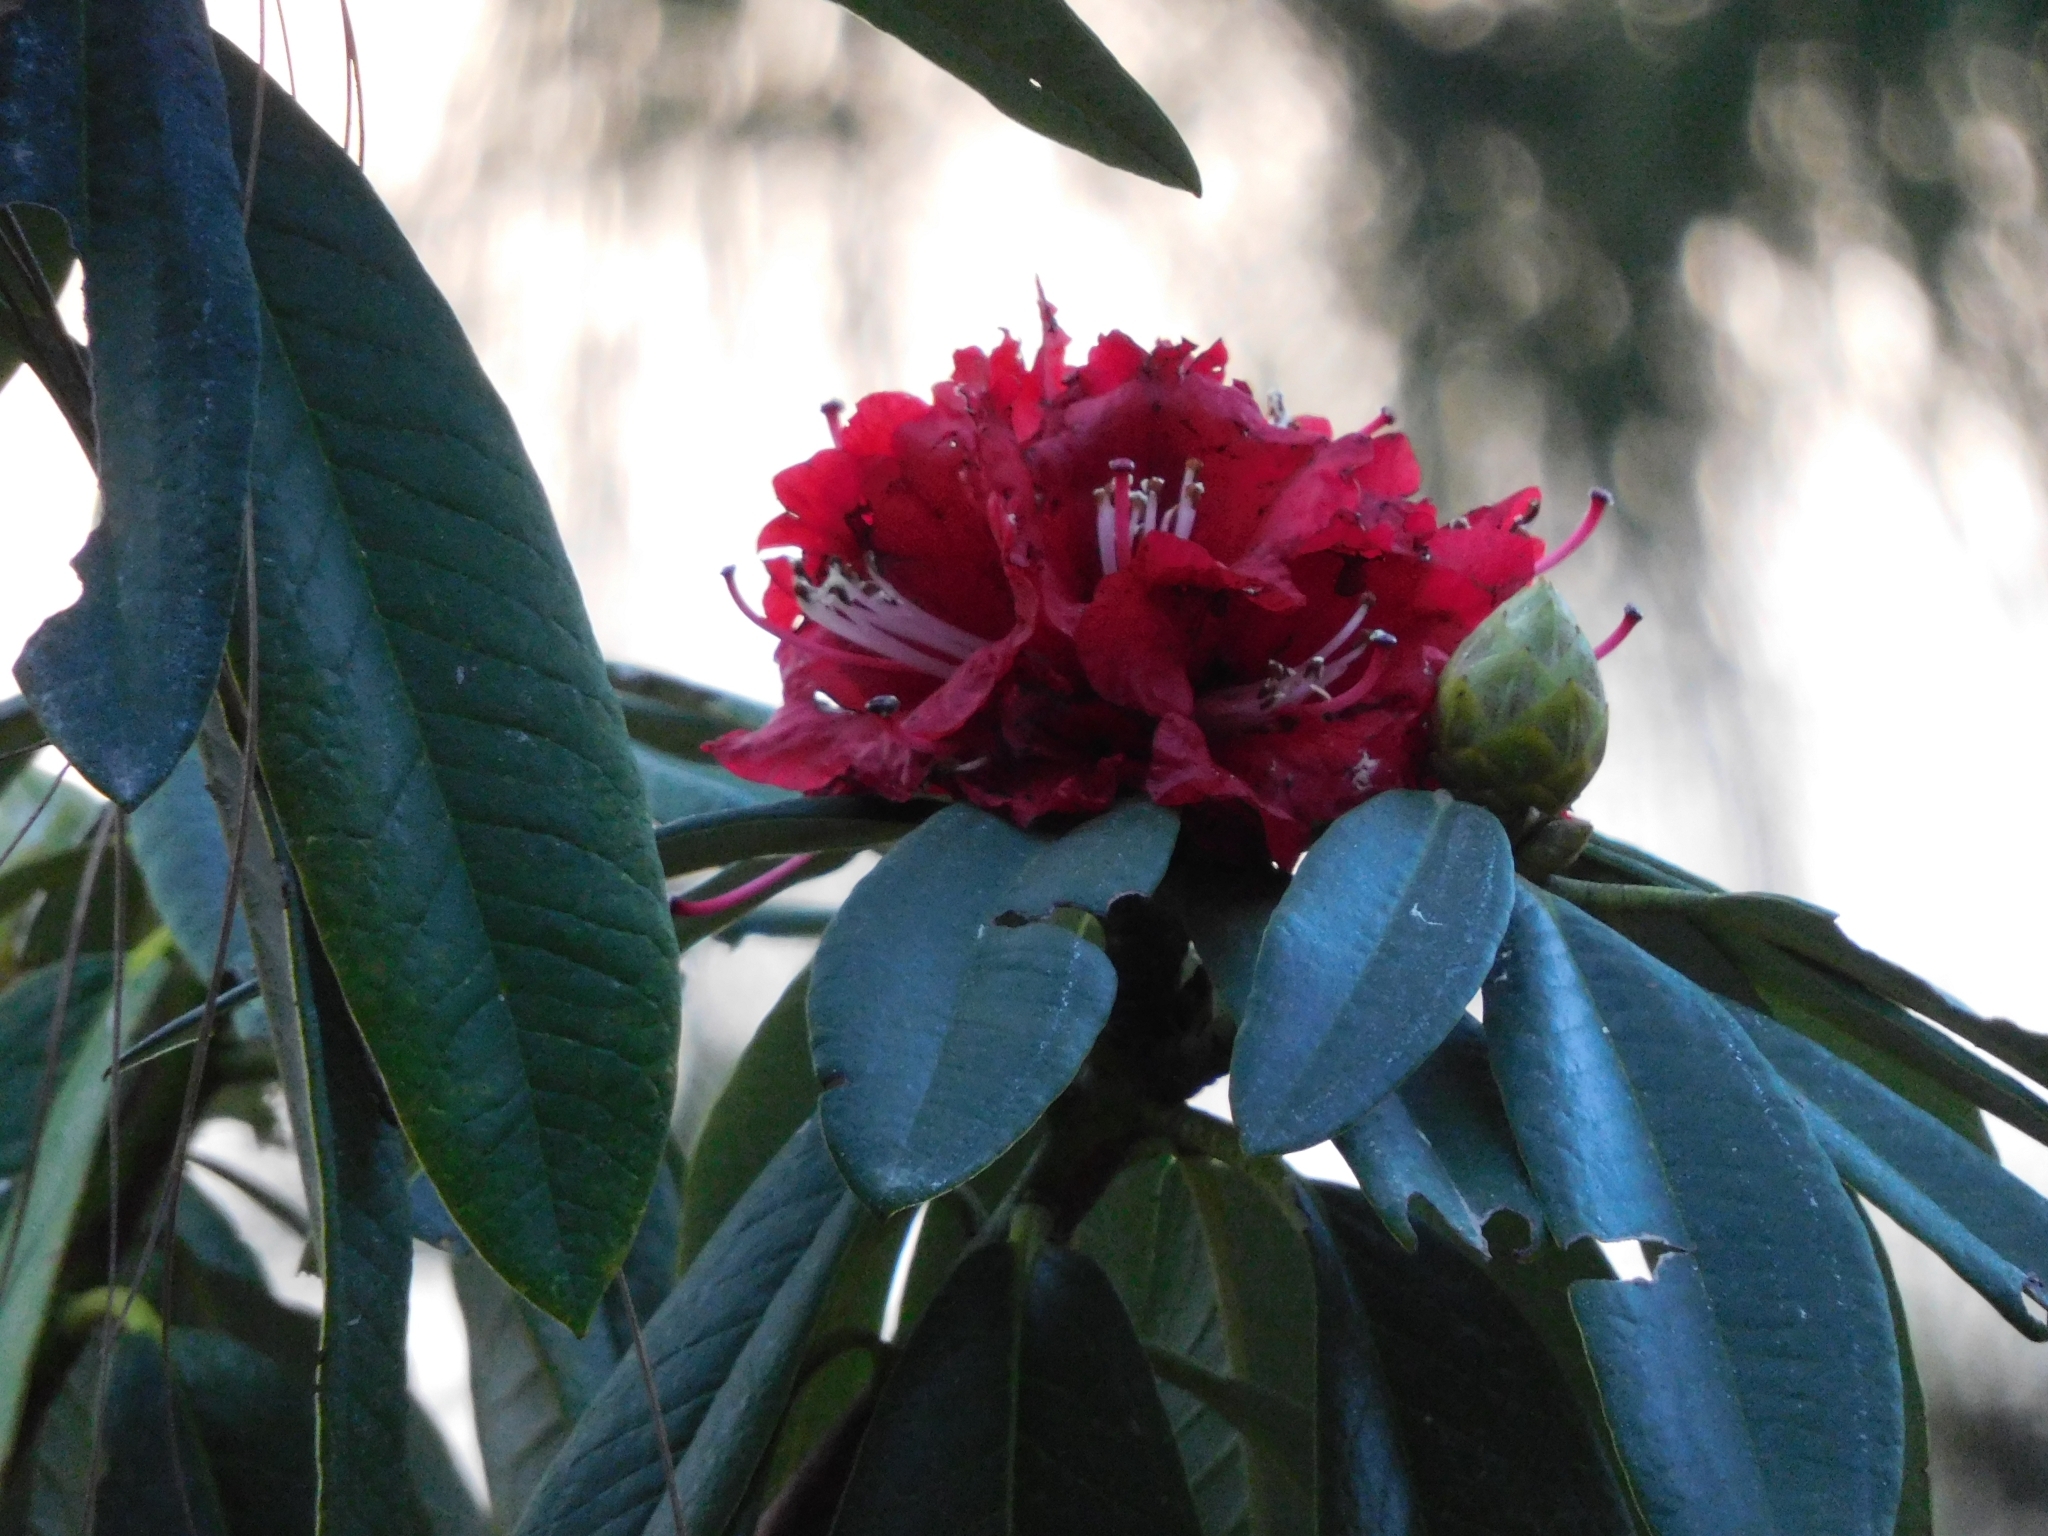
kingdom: Plantae
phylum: Tracheophyta
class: Magnoliopsida
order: Ericales
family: Ericaceae
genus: Rhododendron
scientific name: Rhododendron arboreum
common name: Tree rhododendron
